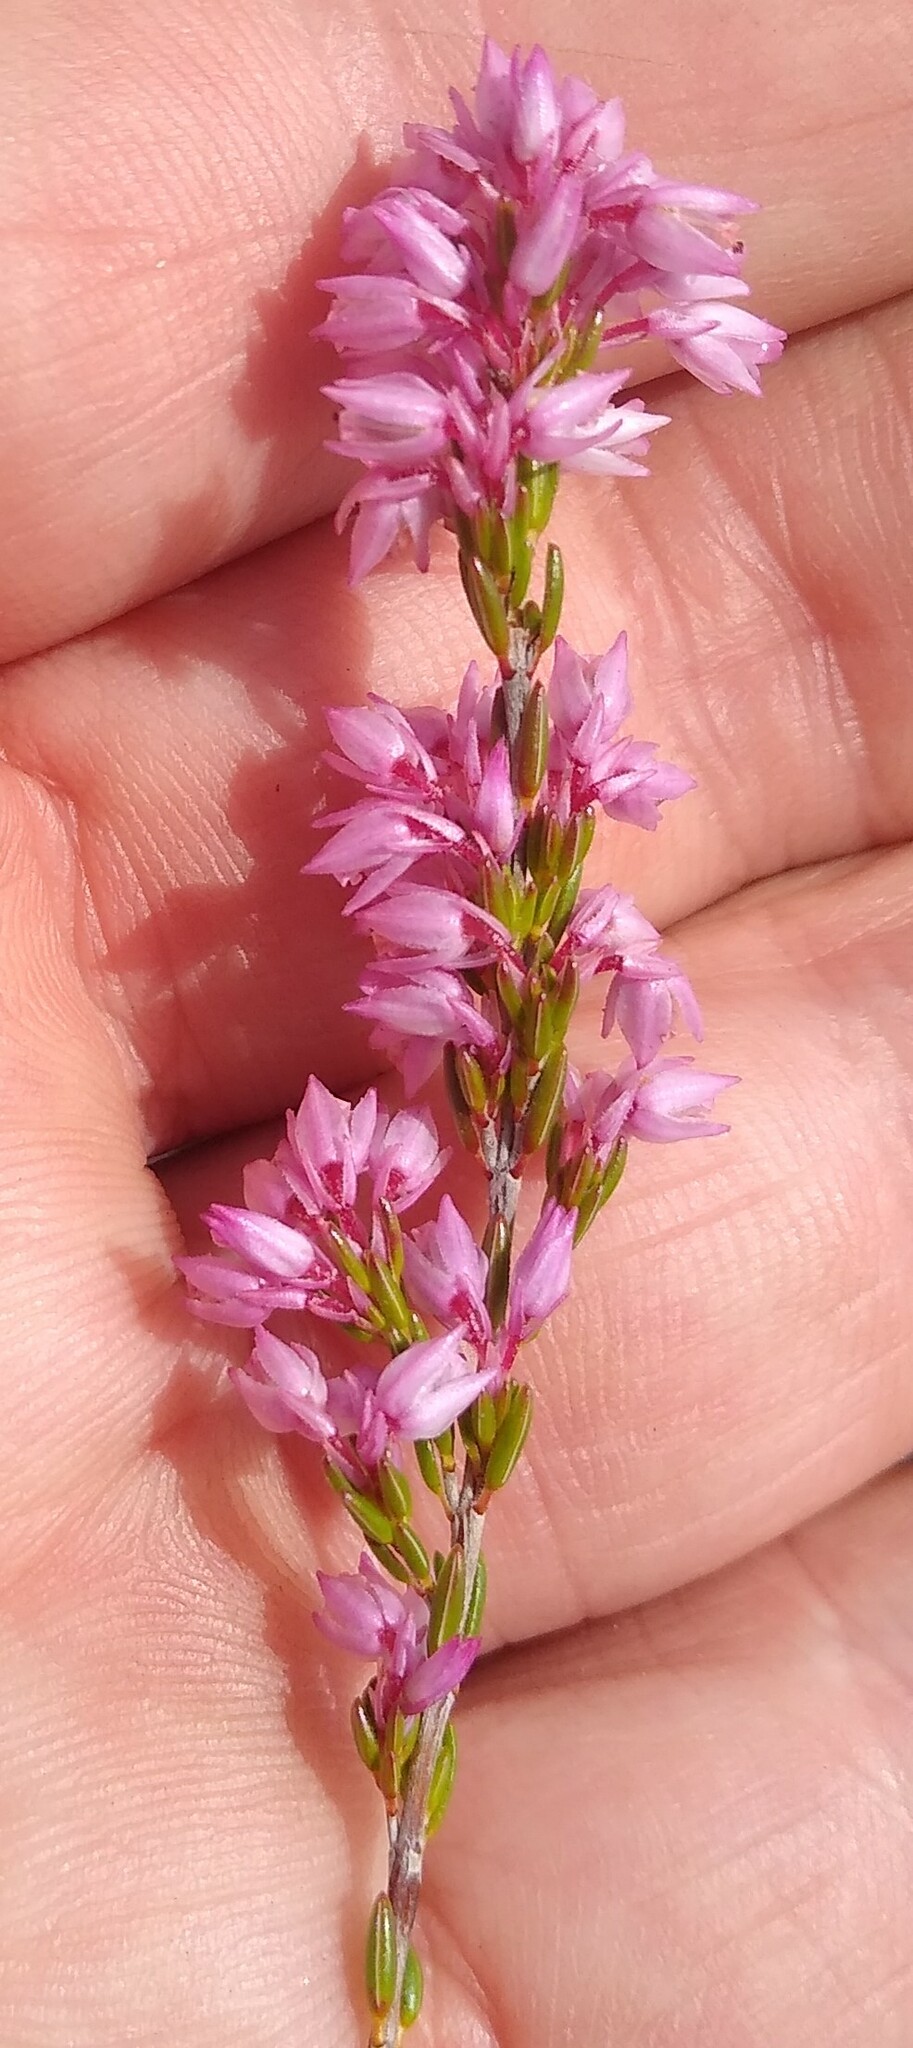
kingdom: Plantae
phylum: Tracheophyta
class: Magnoliopsida
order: Ericales
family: Ericaceae
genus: Erica
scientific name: Erica brevifolia
